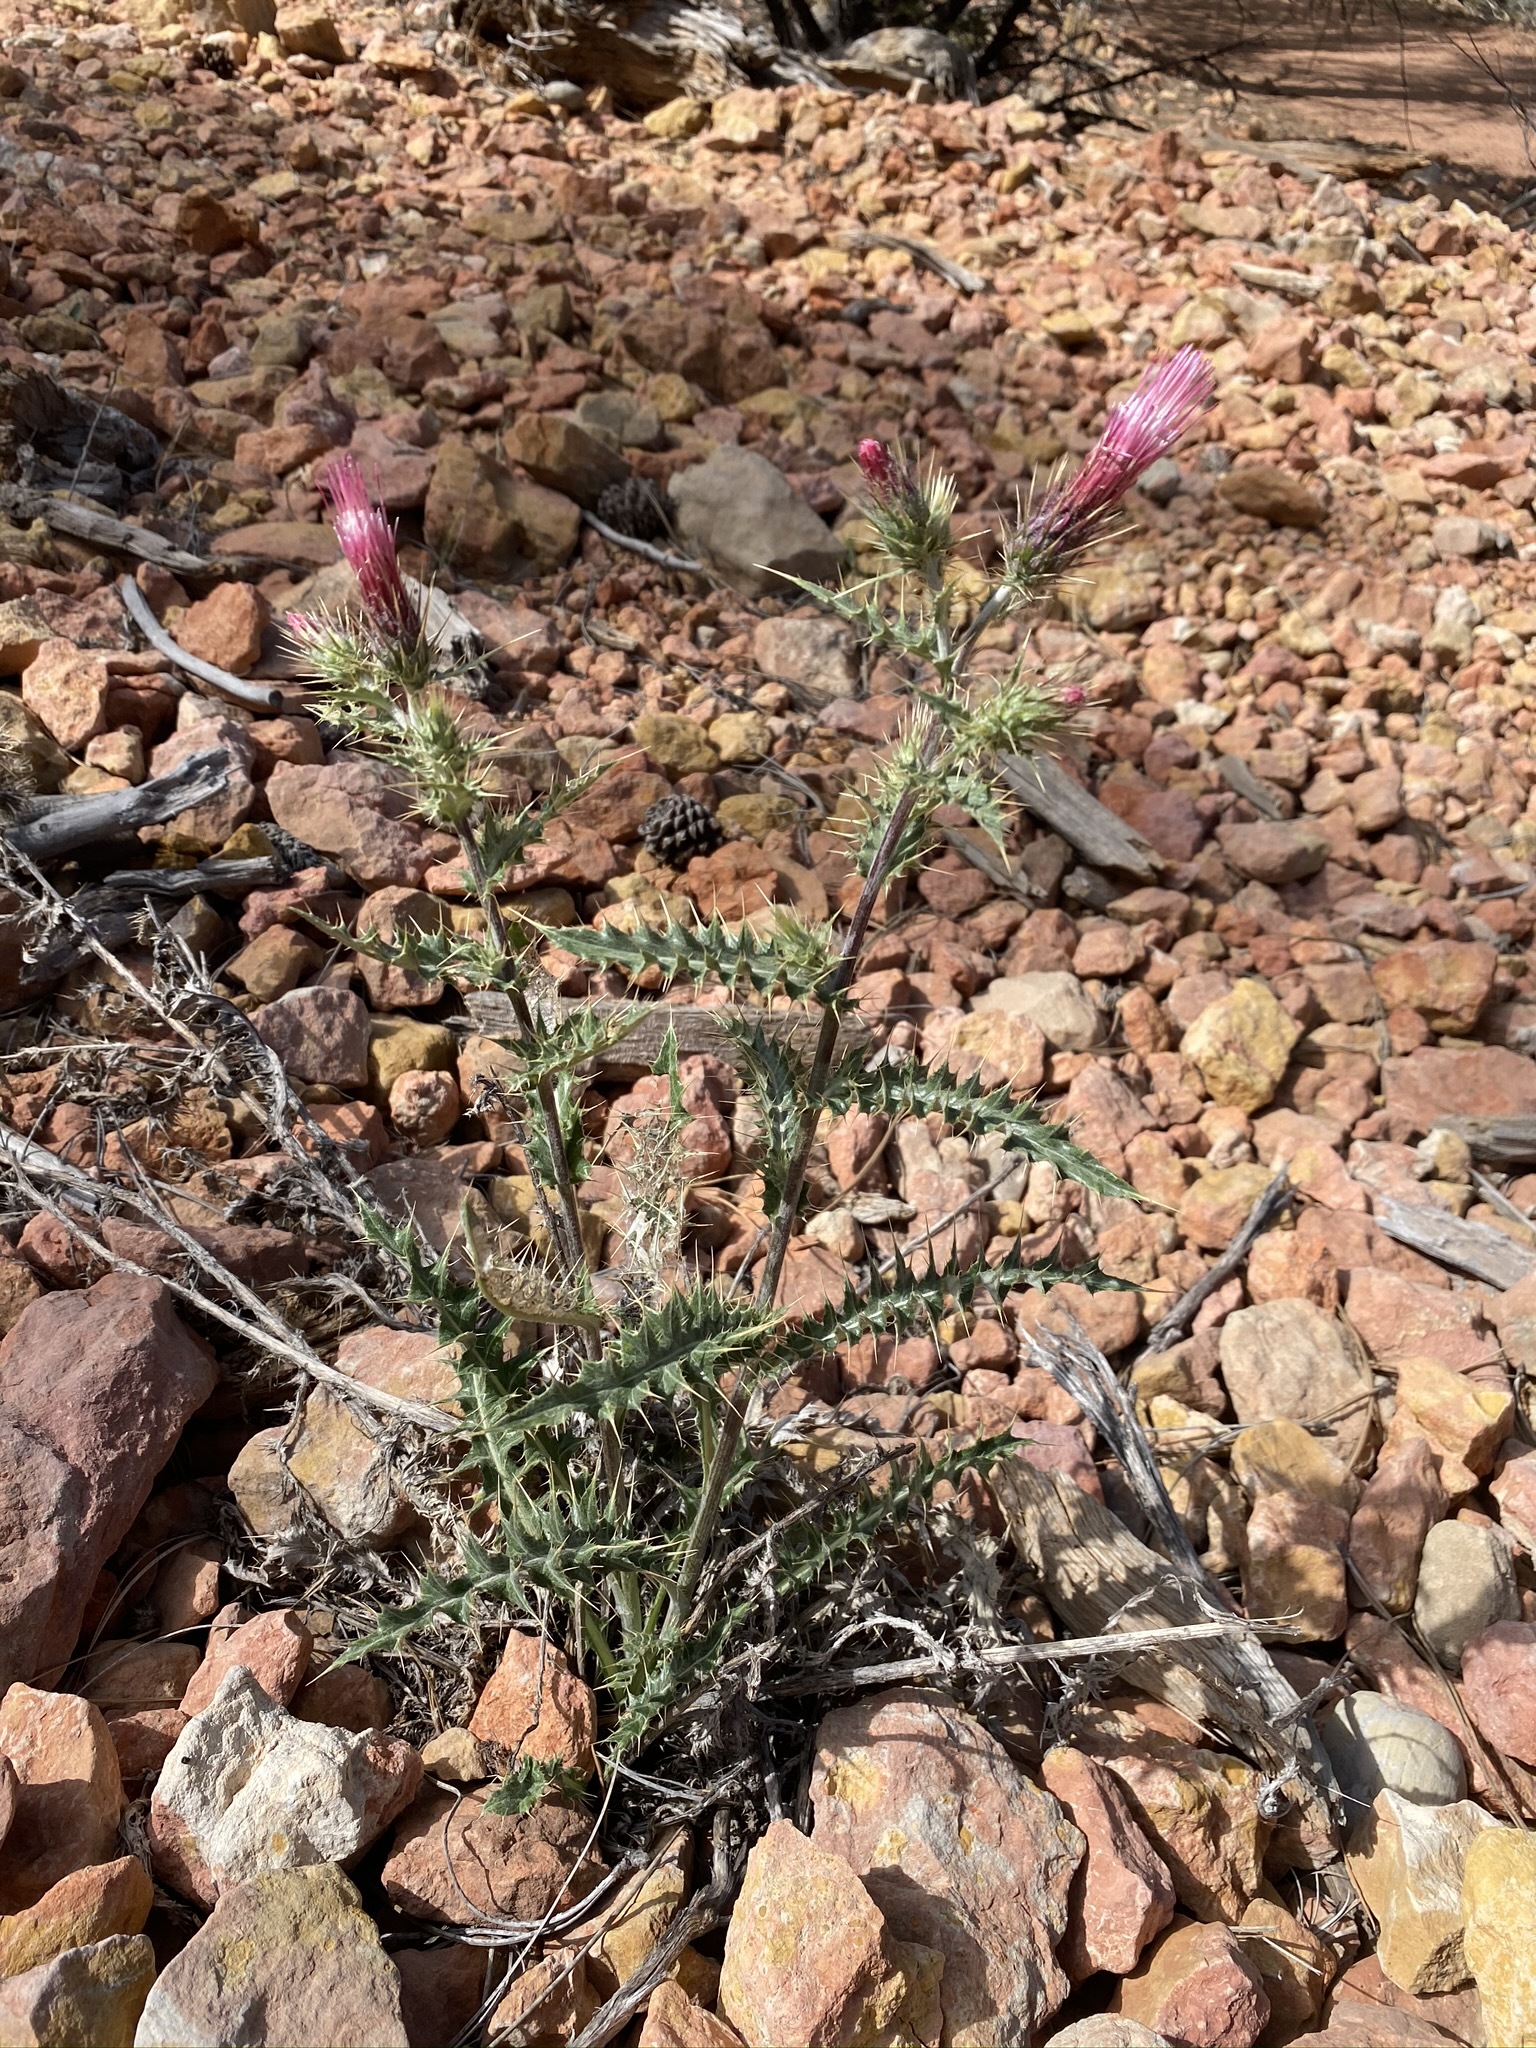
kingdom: Plantae
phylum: Tracheophyta
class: Magnoliopsida
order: Asterales
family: Asteraceae
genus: Cirsium
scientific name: Cirsium arizonicum
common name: Arizona thistle
